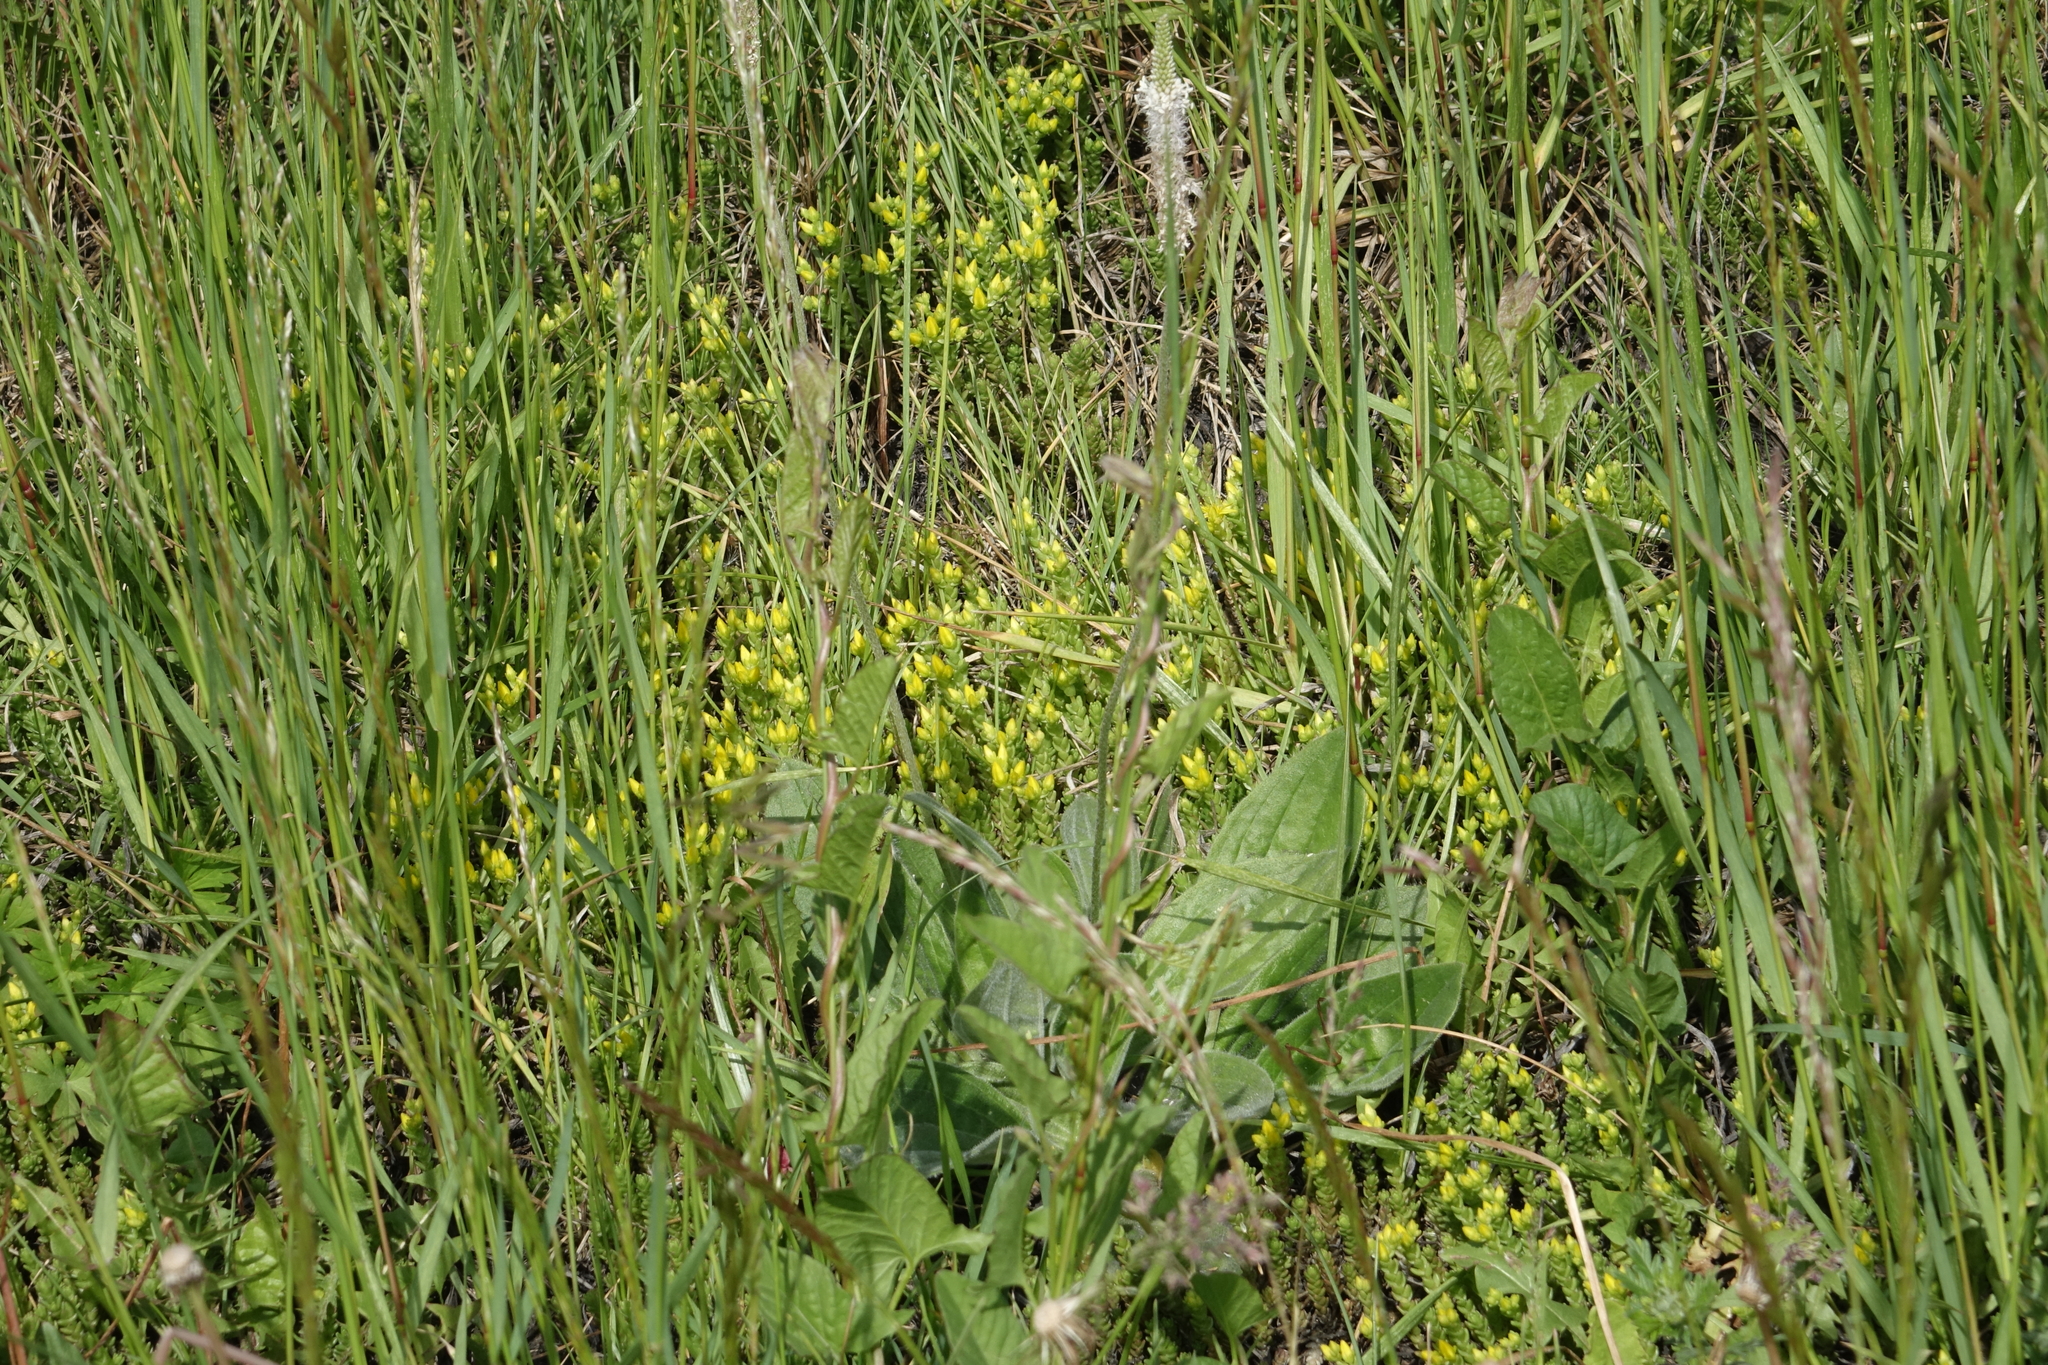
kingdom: Plantae
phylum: Tracheophyta
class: Magnoliopsida
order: Saxifragales
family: Crassulaceae
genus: Sedum
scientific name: Sedum acre
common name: Biting stonecrop
